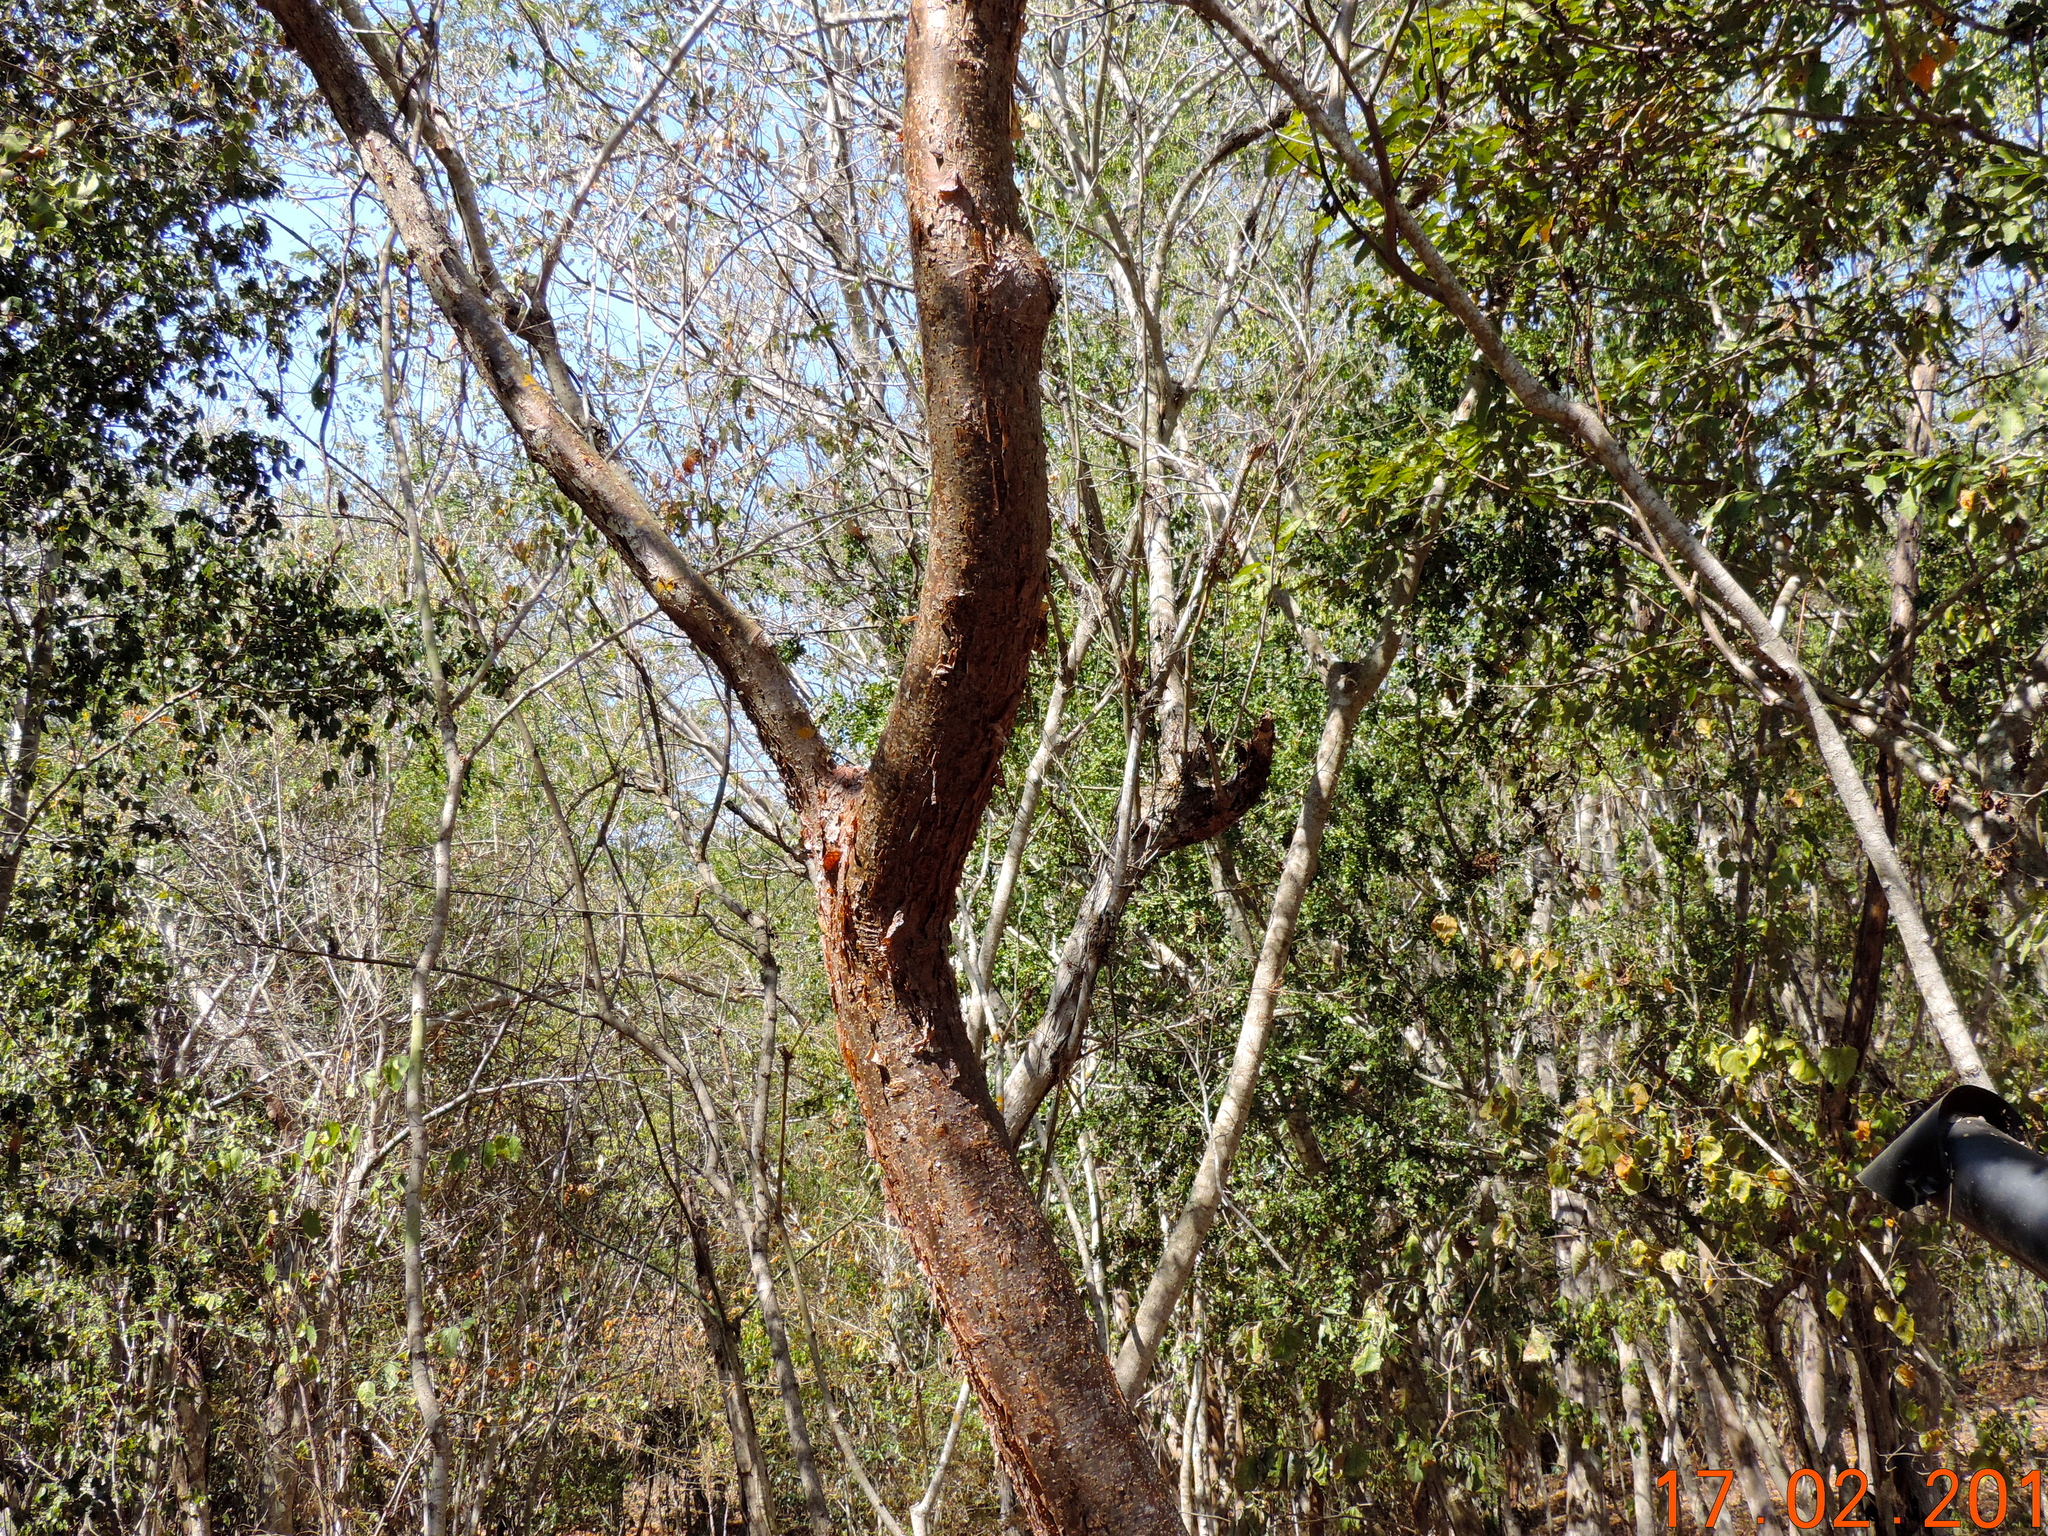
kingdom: Plantae
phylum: Tracheophyta
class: Magnoliopsida
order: Sapindales
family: Burseraceae
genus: Bursera
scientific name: Bursera
